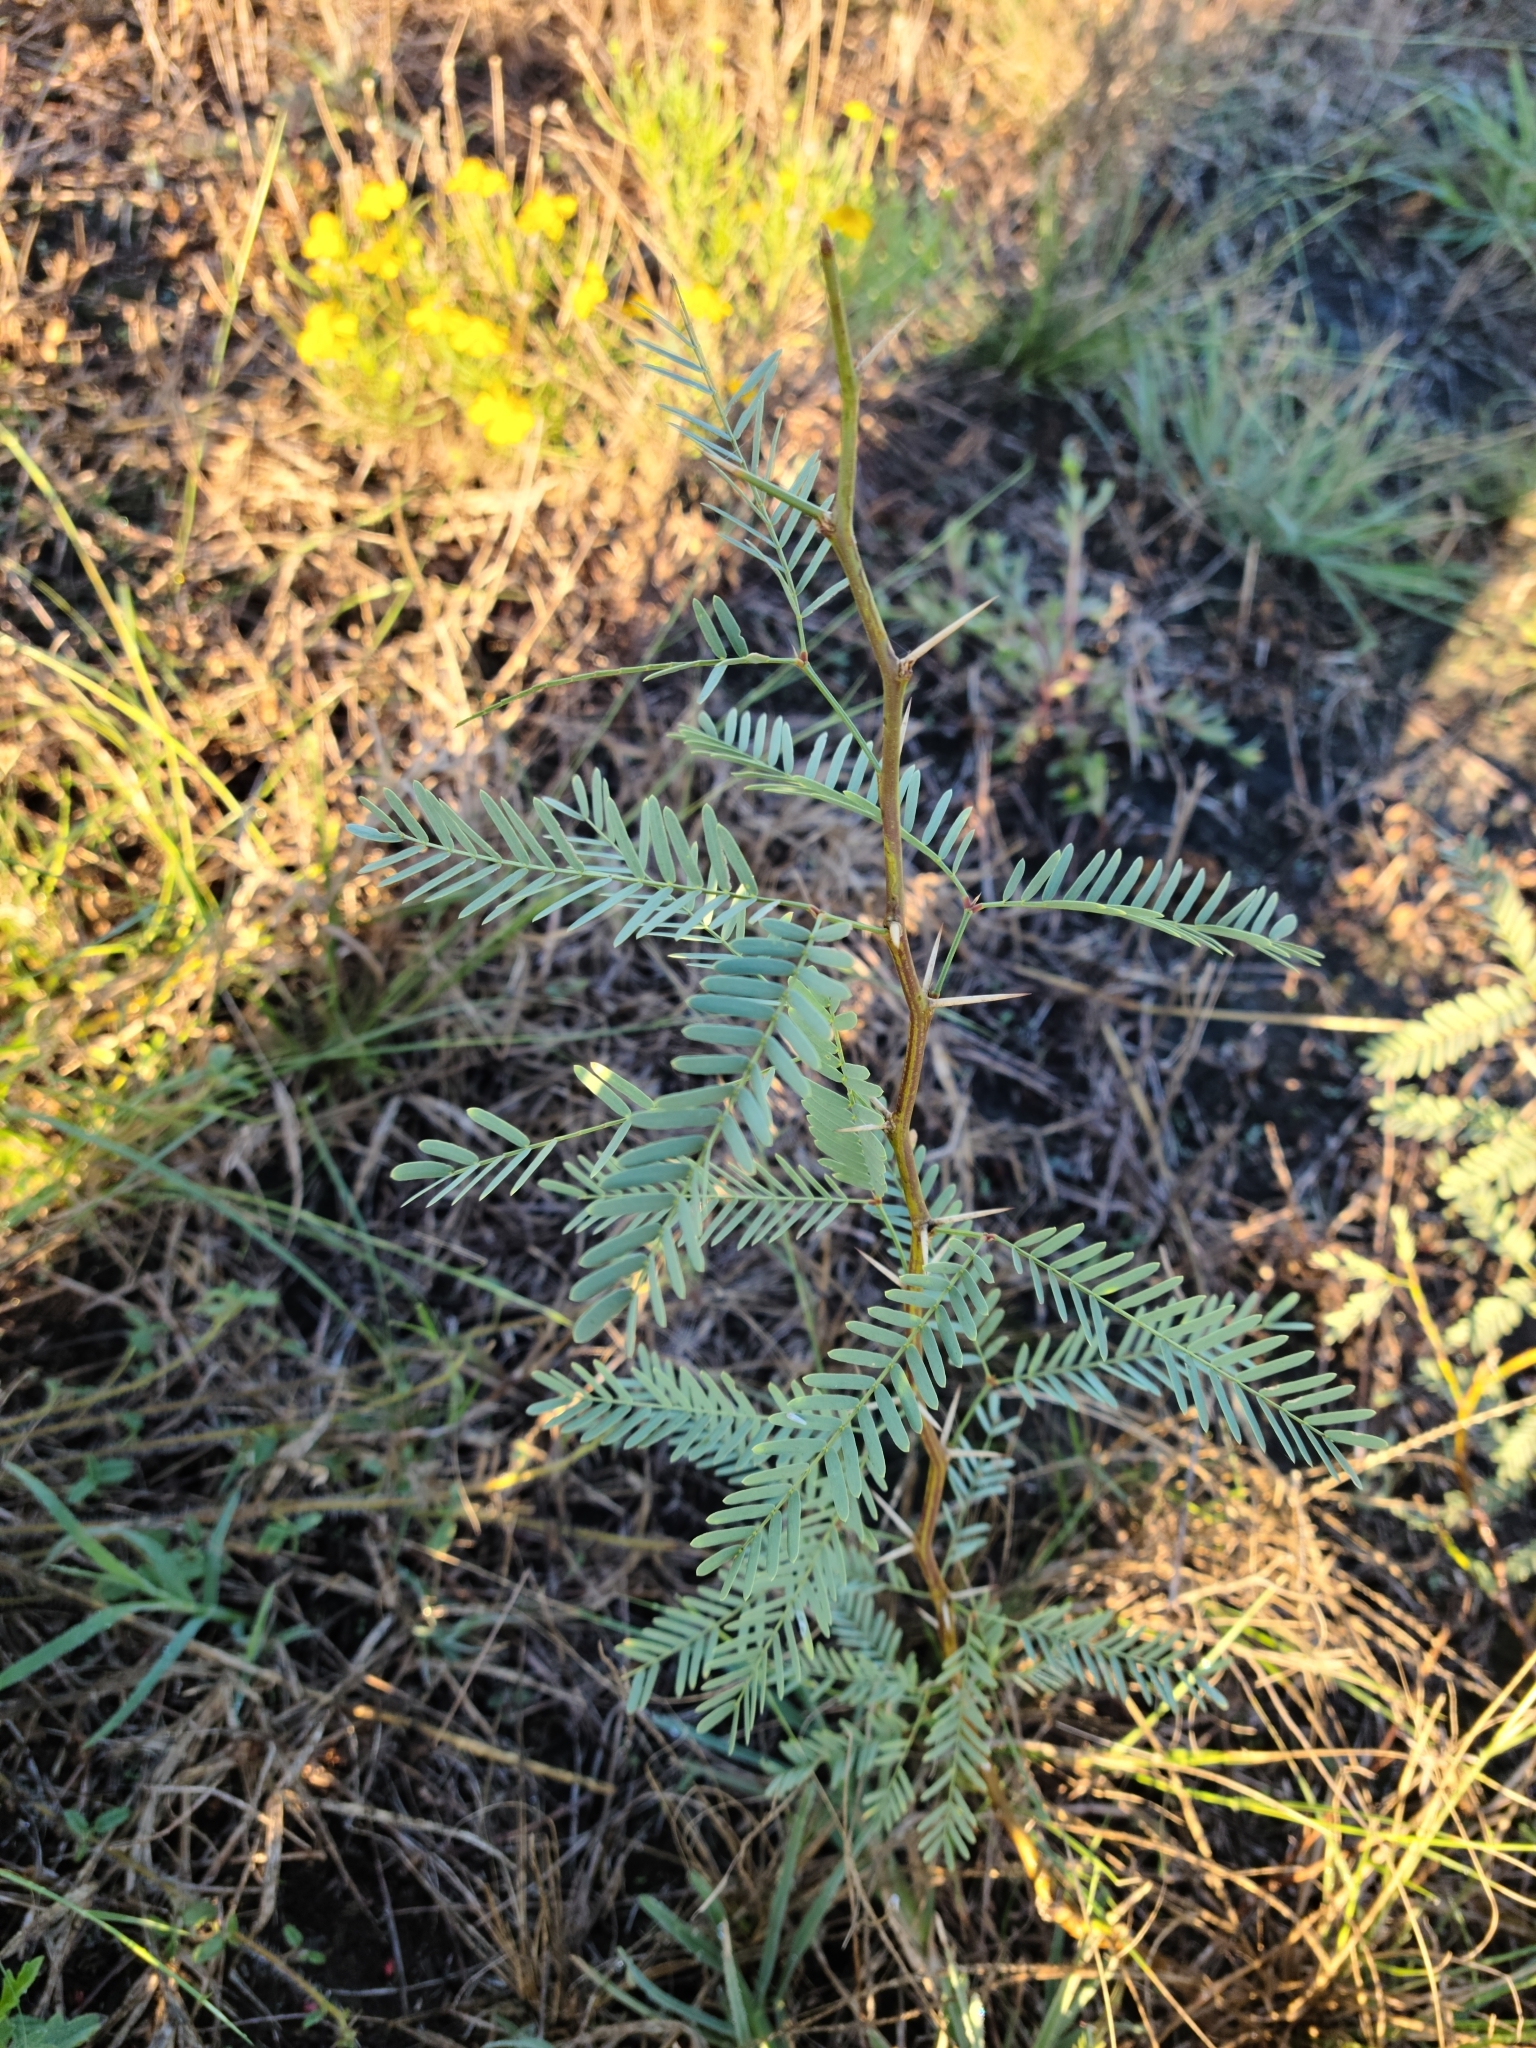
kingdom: Plantae
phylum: Tracheophyta
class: Magnoliopsida
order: Fabales
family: Fabaceae
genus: Prosopis
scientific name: Prosopis glandulosa
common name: Honey mesquite
